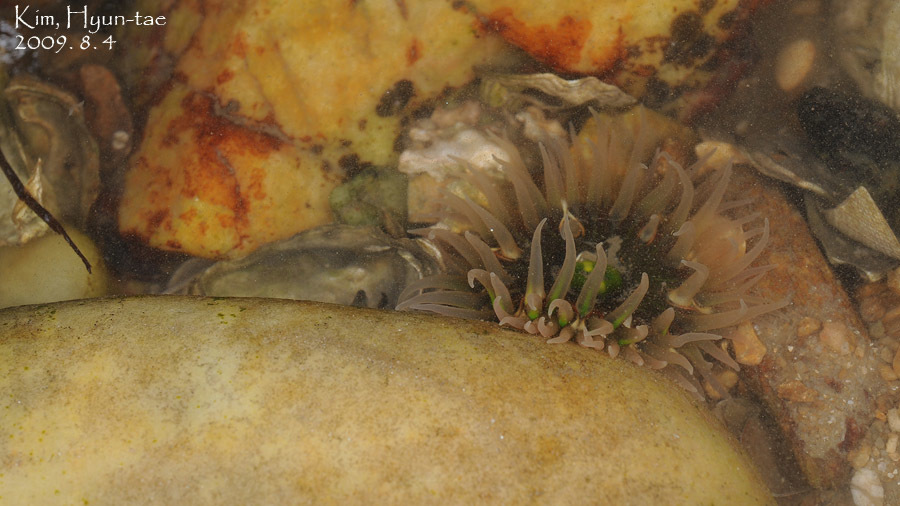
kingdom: Animalia
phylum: Cnidaria
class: Anthozoa
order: Actiniaria
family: Actiniidae
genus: Anthopleura
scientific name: Anthopleura fuscoviridis
